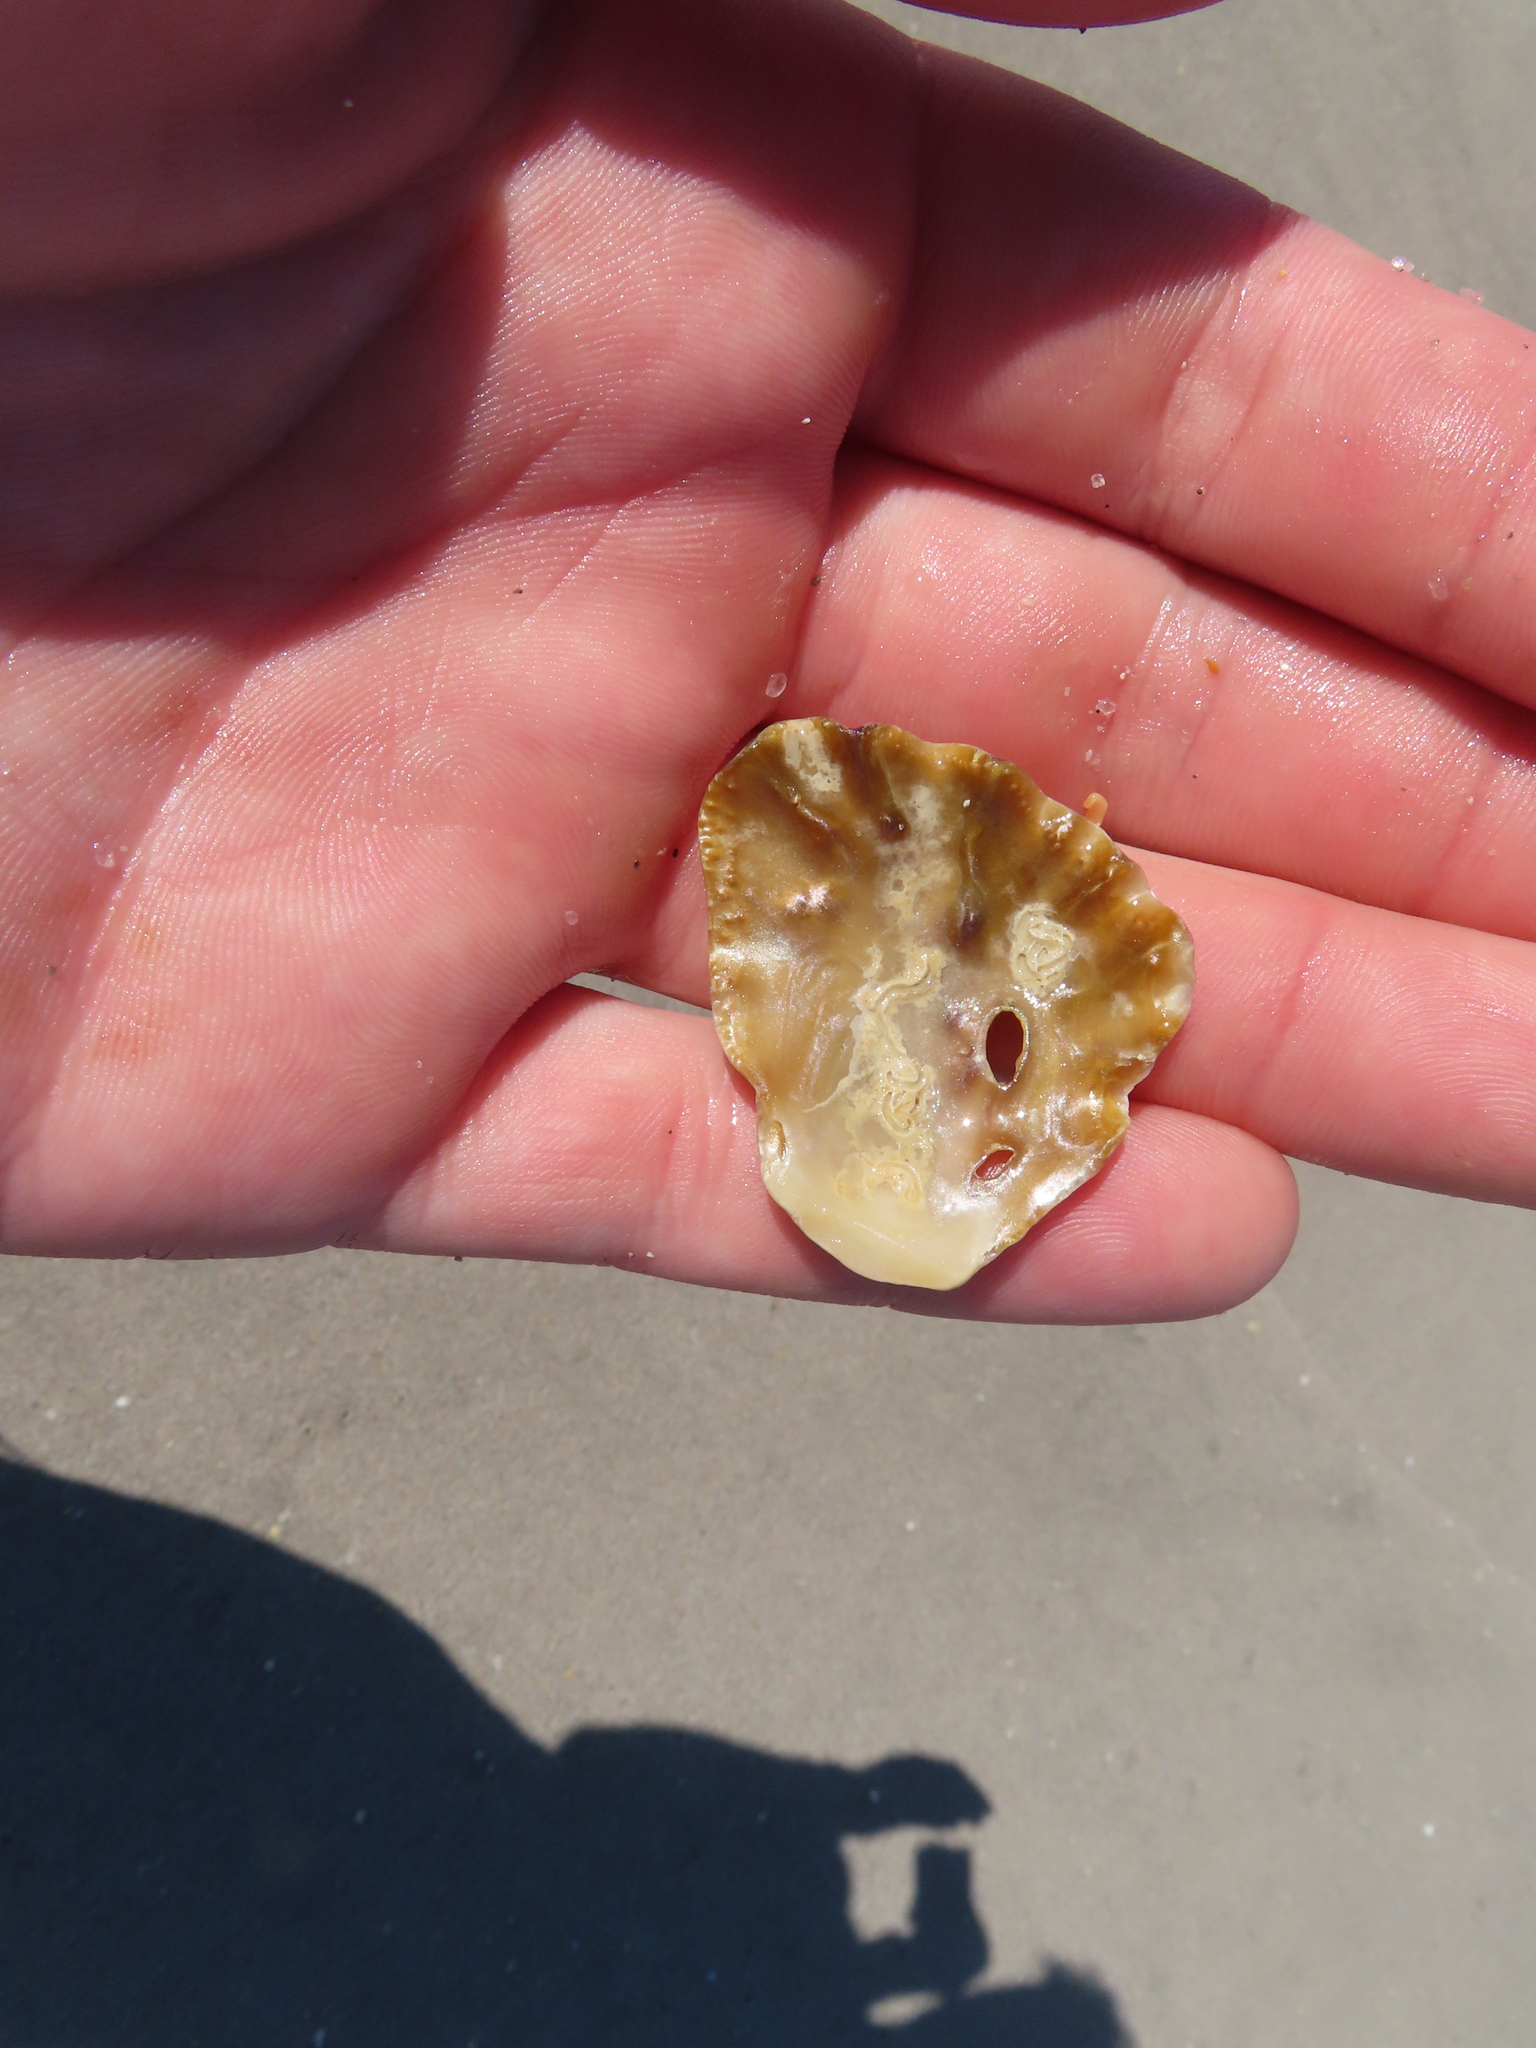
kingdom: Animalia
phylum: Mollusca
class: Bivalvia
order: Ostreida
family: Ostreidae
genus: Dendostrea
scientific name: Dendostrea frons
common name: Frond oyster
